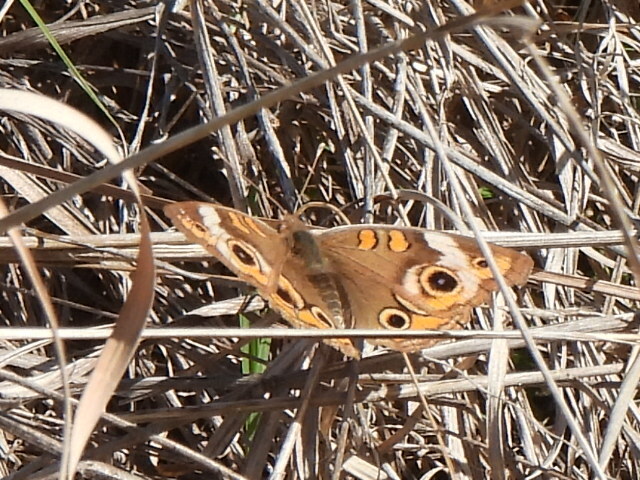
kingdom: Animalia
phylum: Arthropoda
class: Insecta
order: Lepidoptera
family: Nymphalidae
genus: Junonia
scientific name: Junonia coenia
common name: Common buckeye
